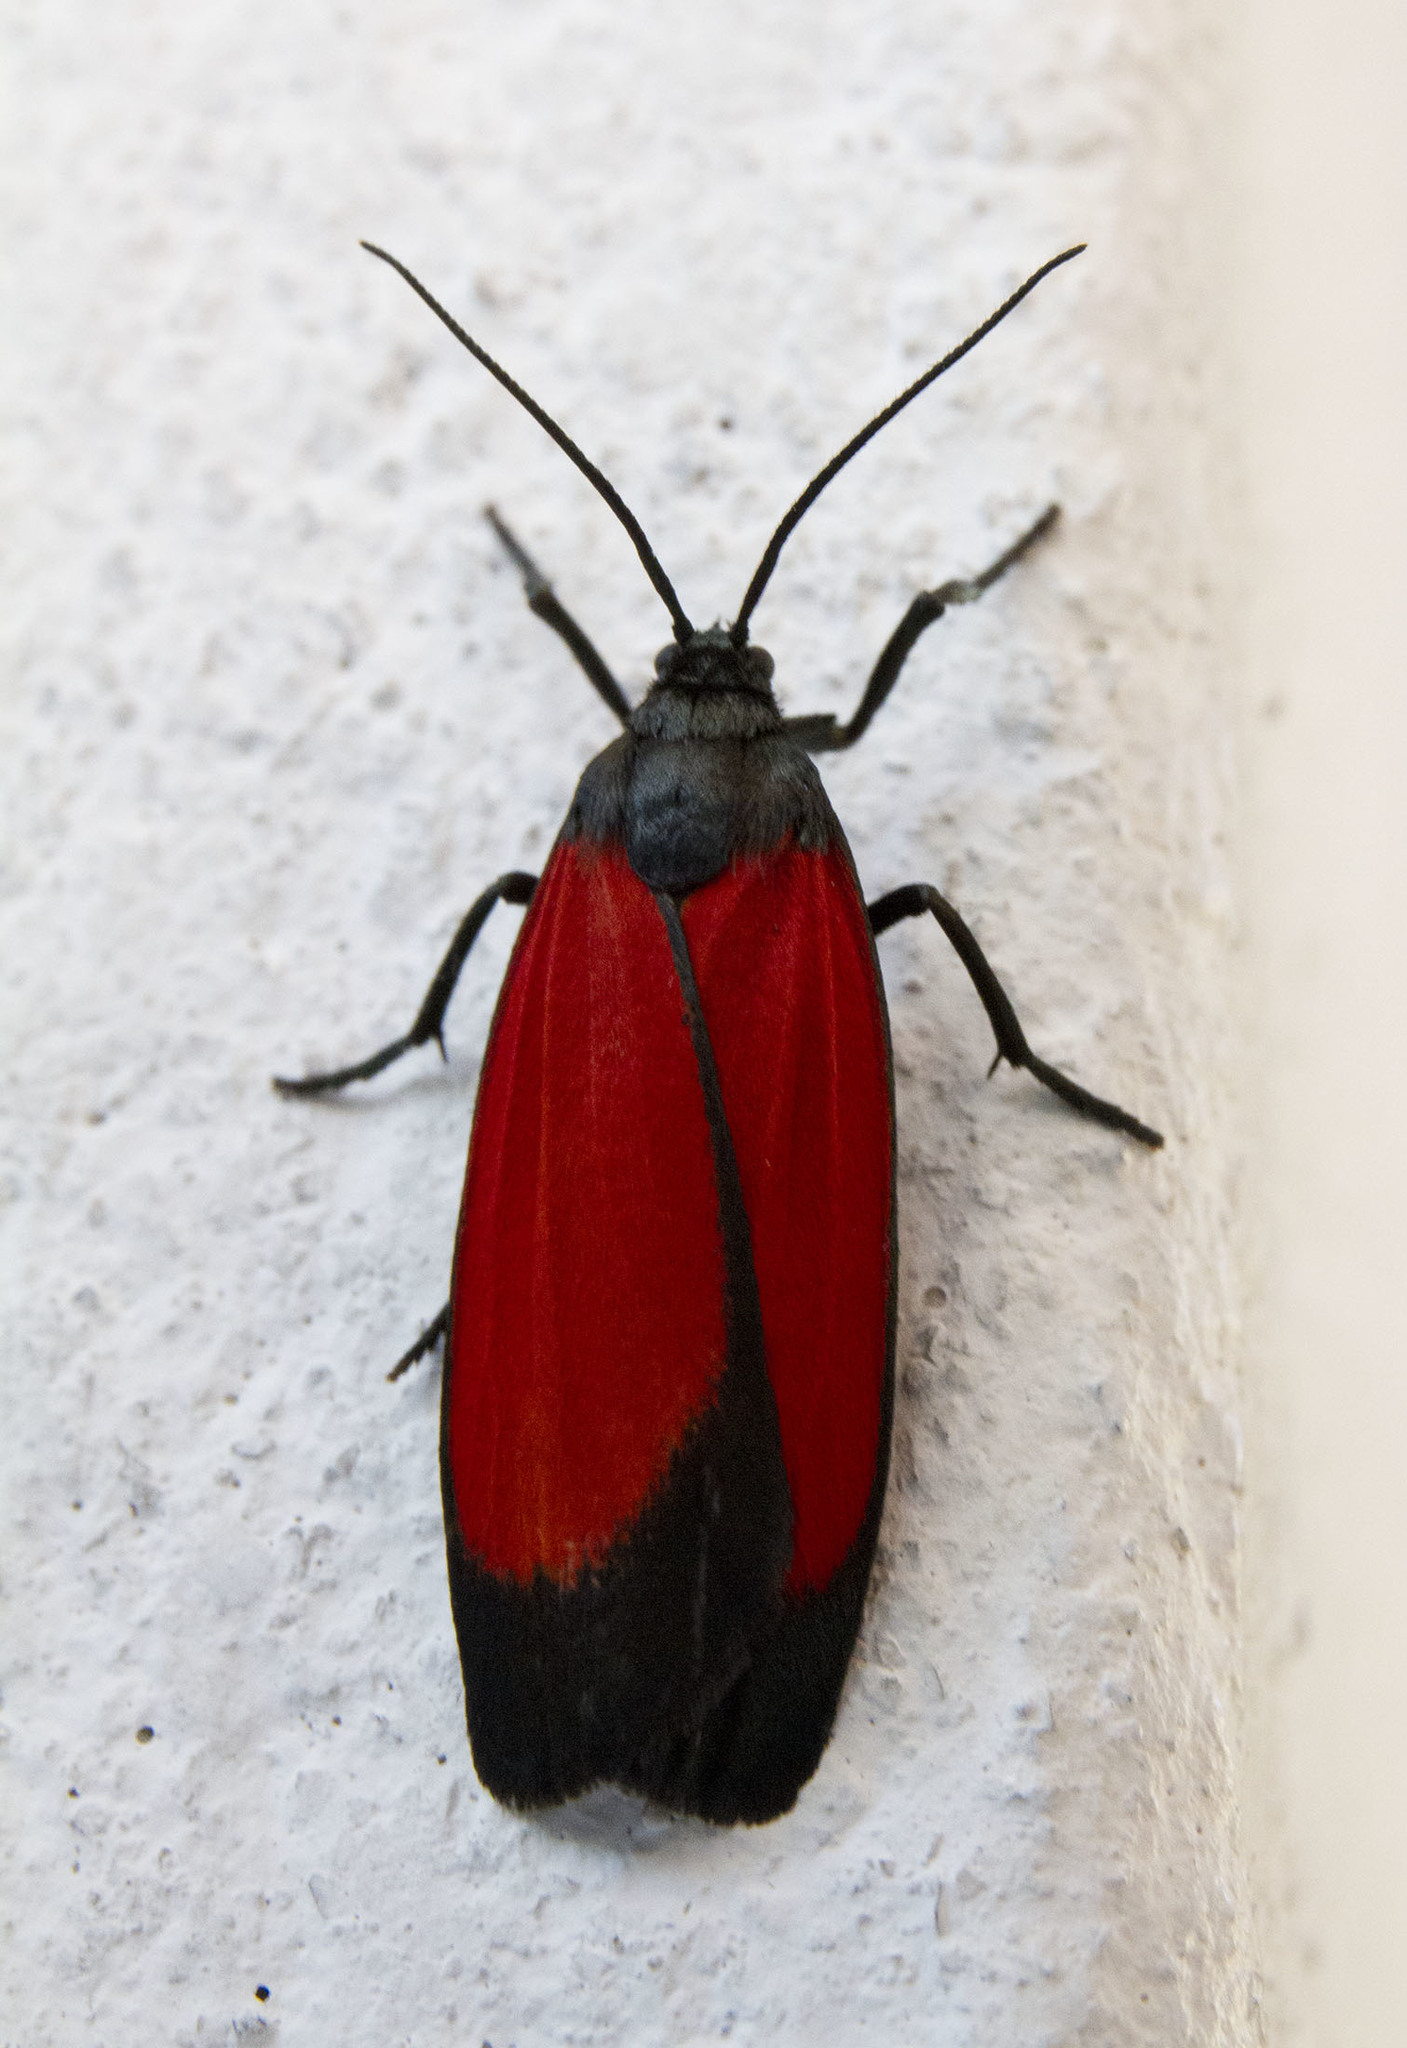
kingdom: Animalia
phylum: Arthropoda
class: Insecta
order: Lepidoptera
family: Erebidae
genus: Ptychoglene
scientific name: Ptychoglene sanguineola
